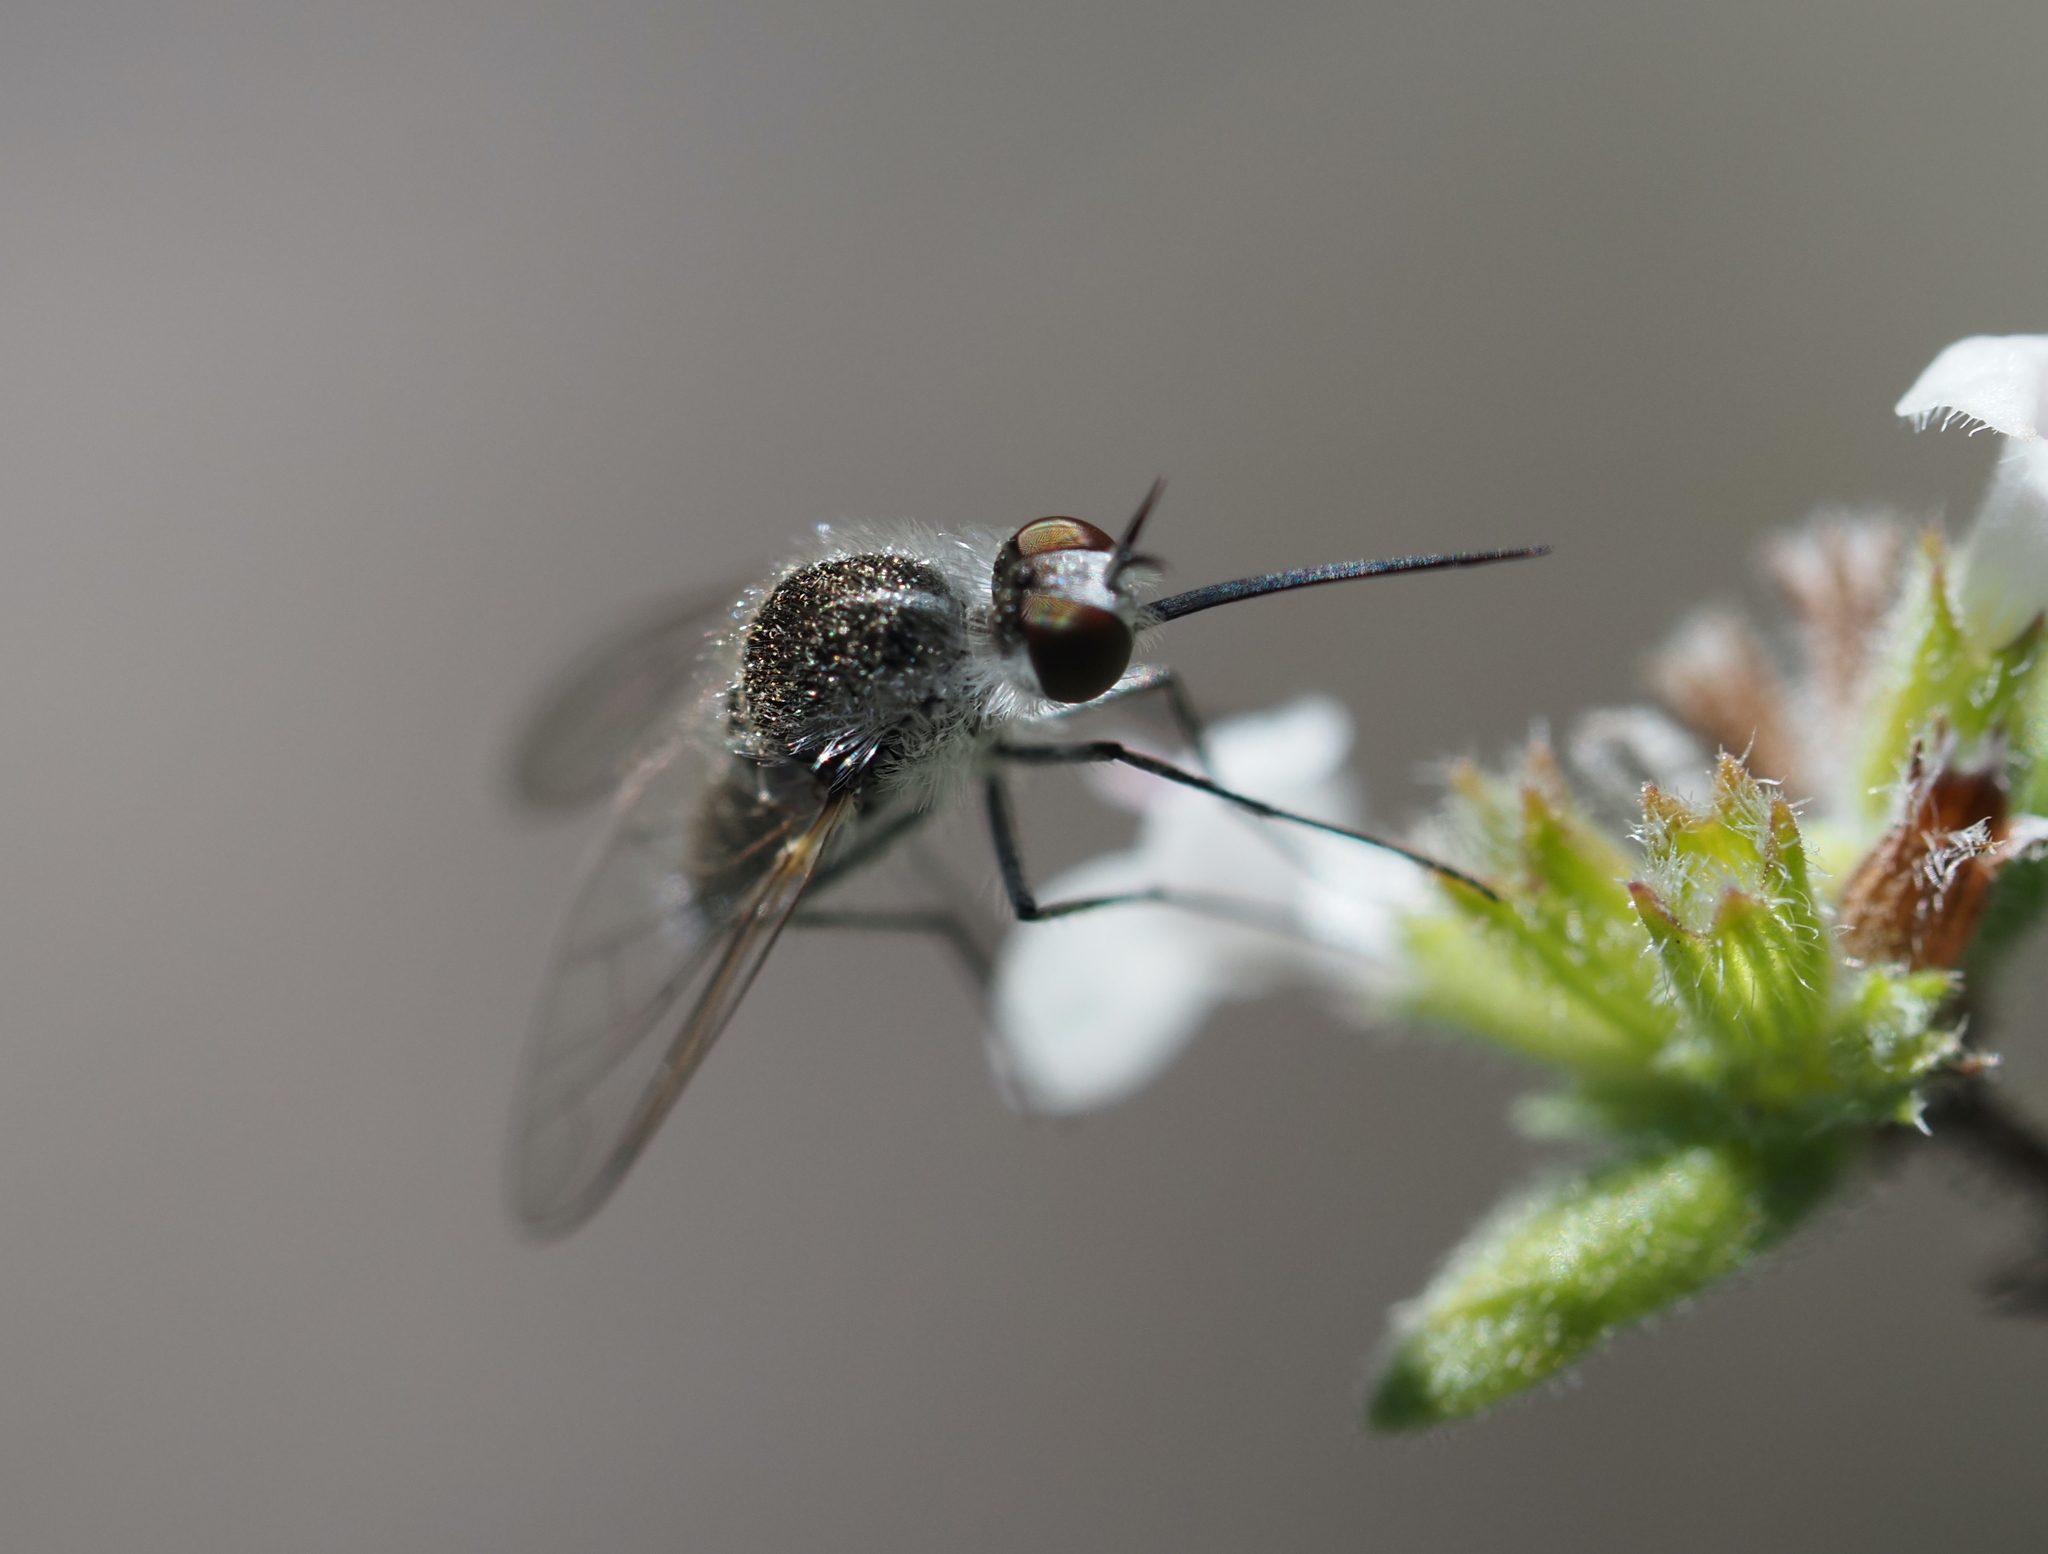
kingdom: Animalia
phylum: Arthropoda
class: Insecta
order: Diptera
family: Bombyliidae
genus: Geron
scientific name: Geron hesperidum
